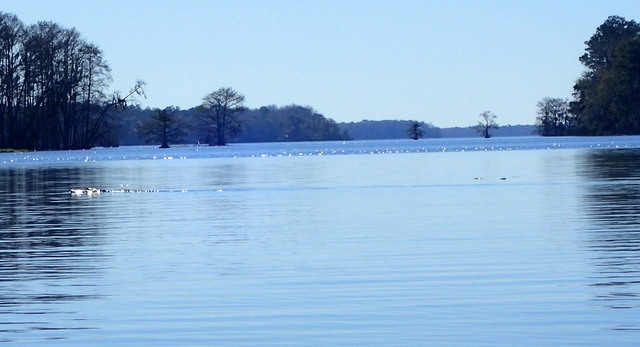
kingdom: Animalia
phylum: Chordata
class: Crocodylia
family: Alligatoridae
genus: Alligator
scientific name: Alligator mississippiensis
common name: American alligator
